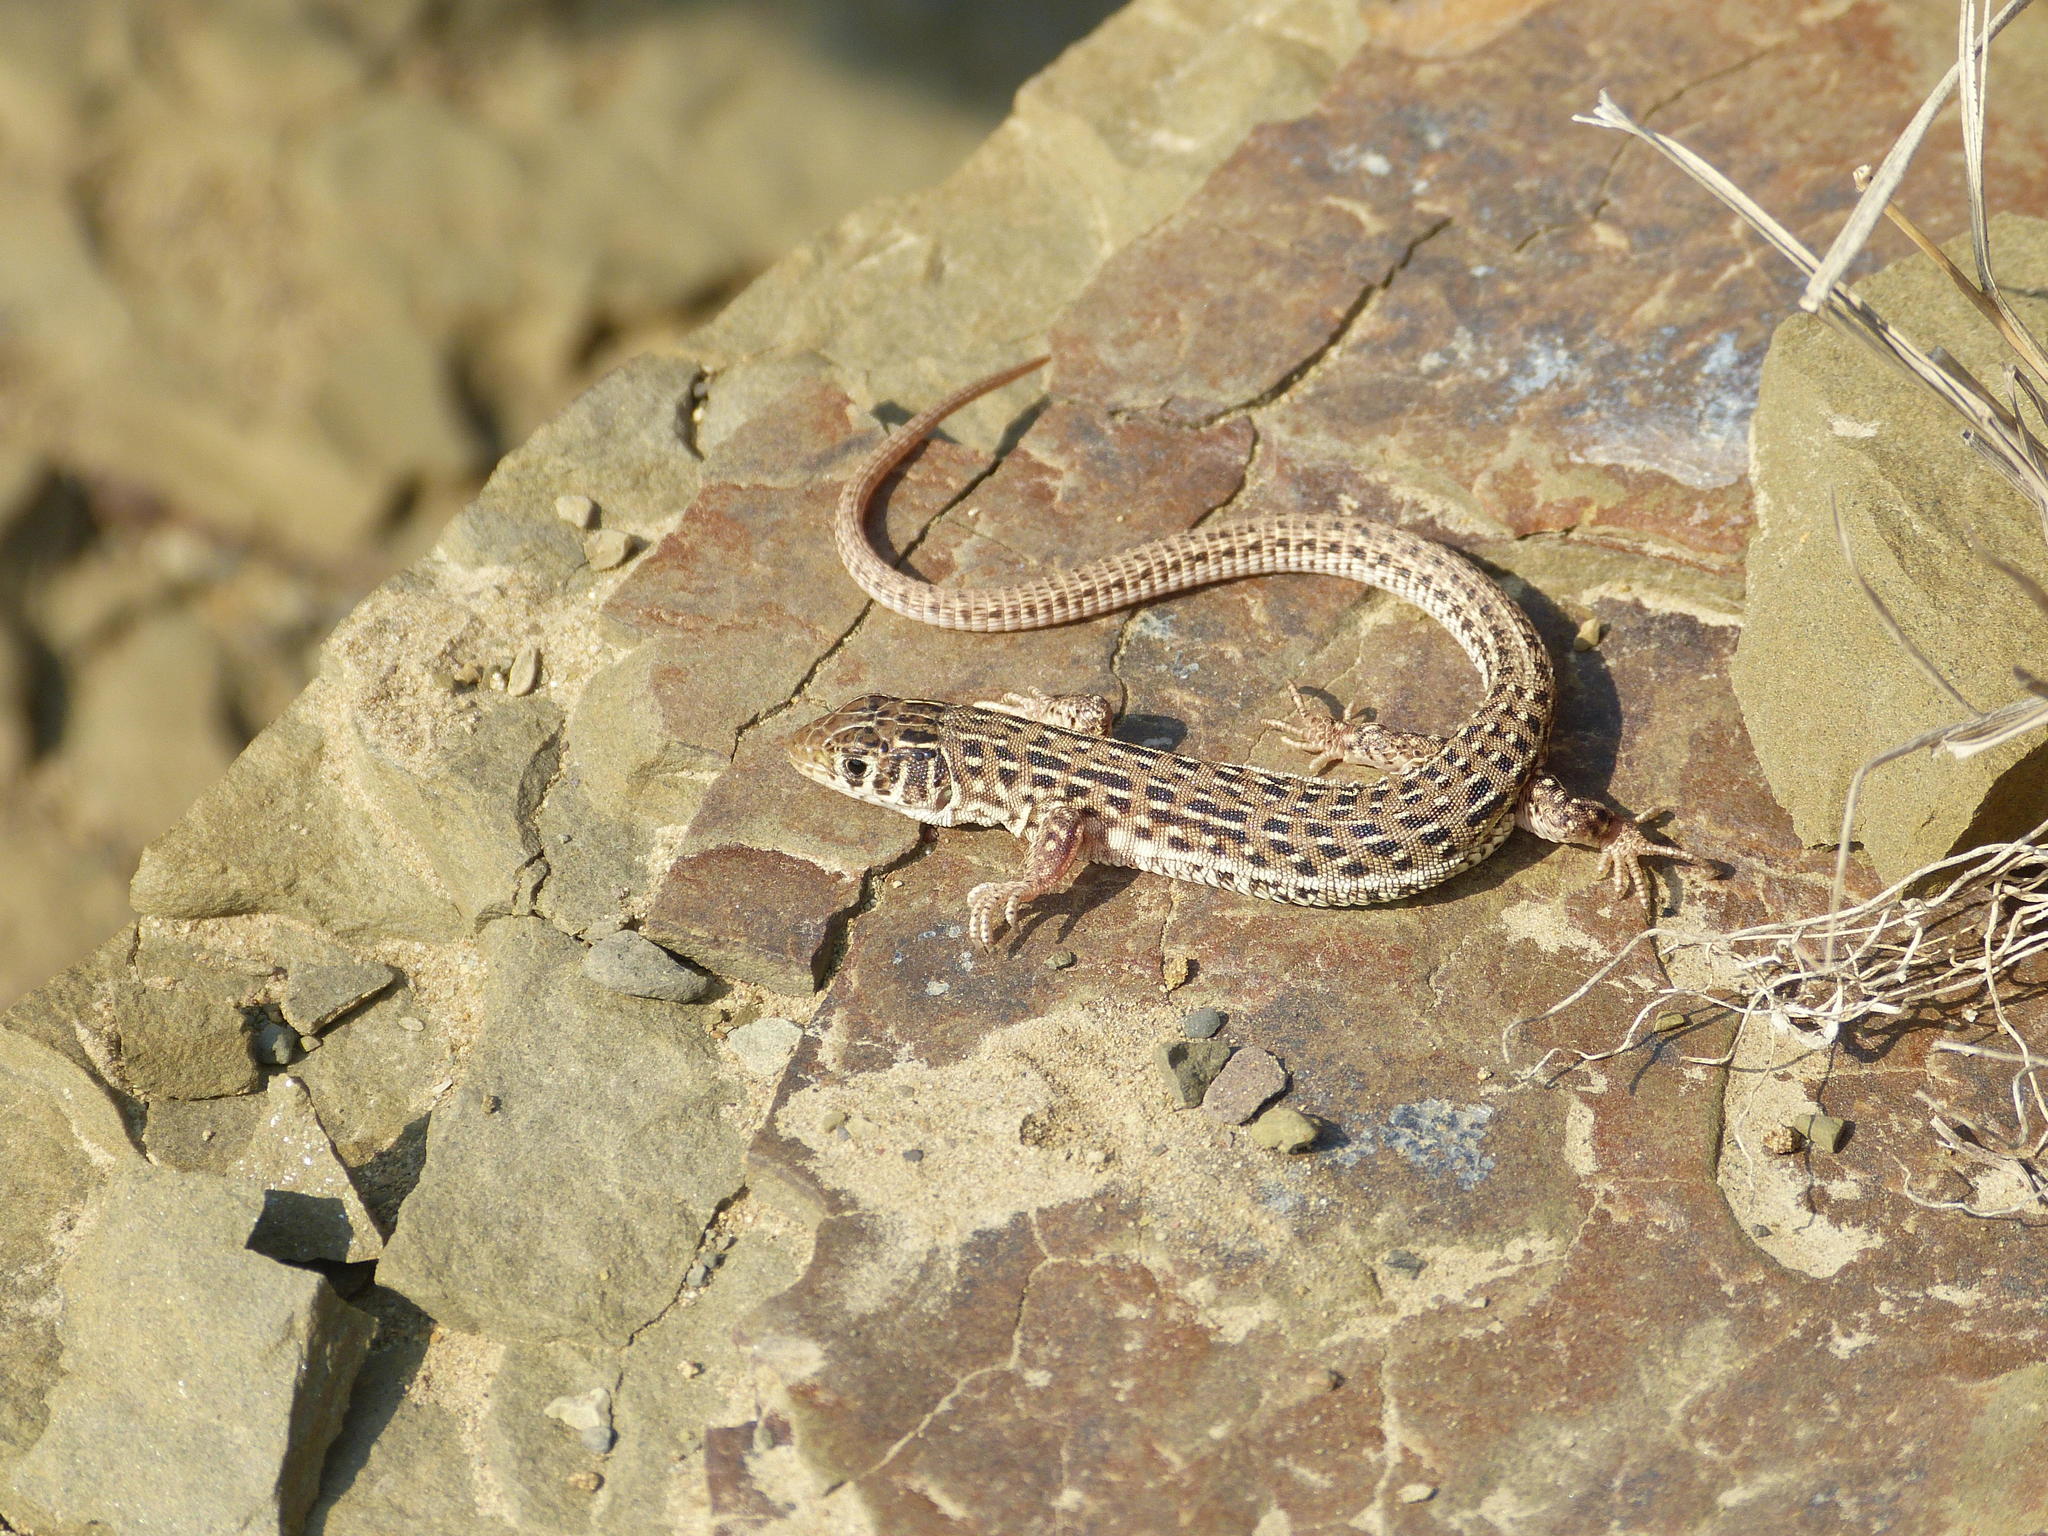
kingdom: Animalia
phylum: Chordata
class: Squamata
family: Lacertidae
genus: Nucras
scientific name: Nucras lalandii
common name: Delalande's sandveld lizard
